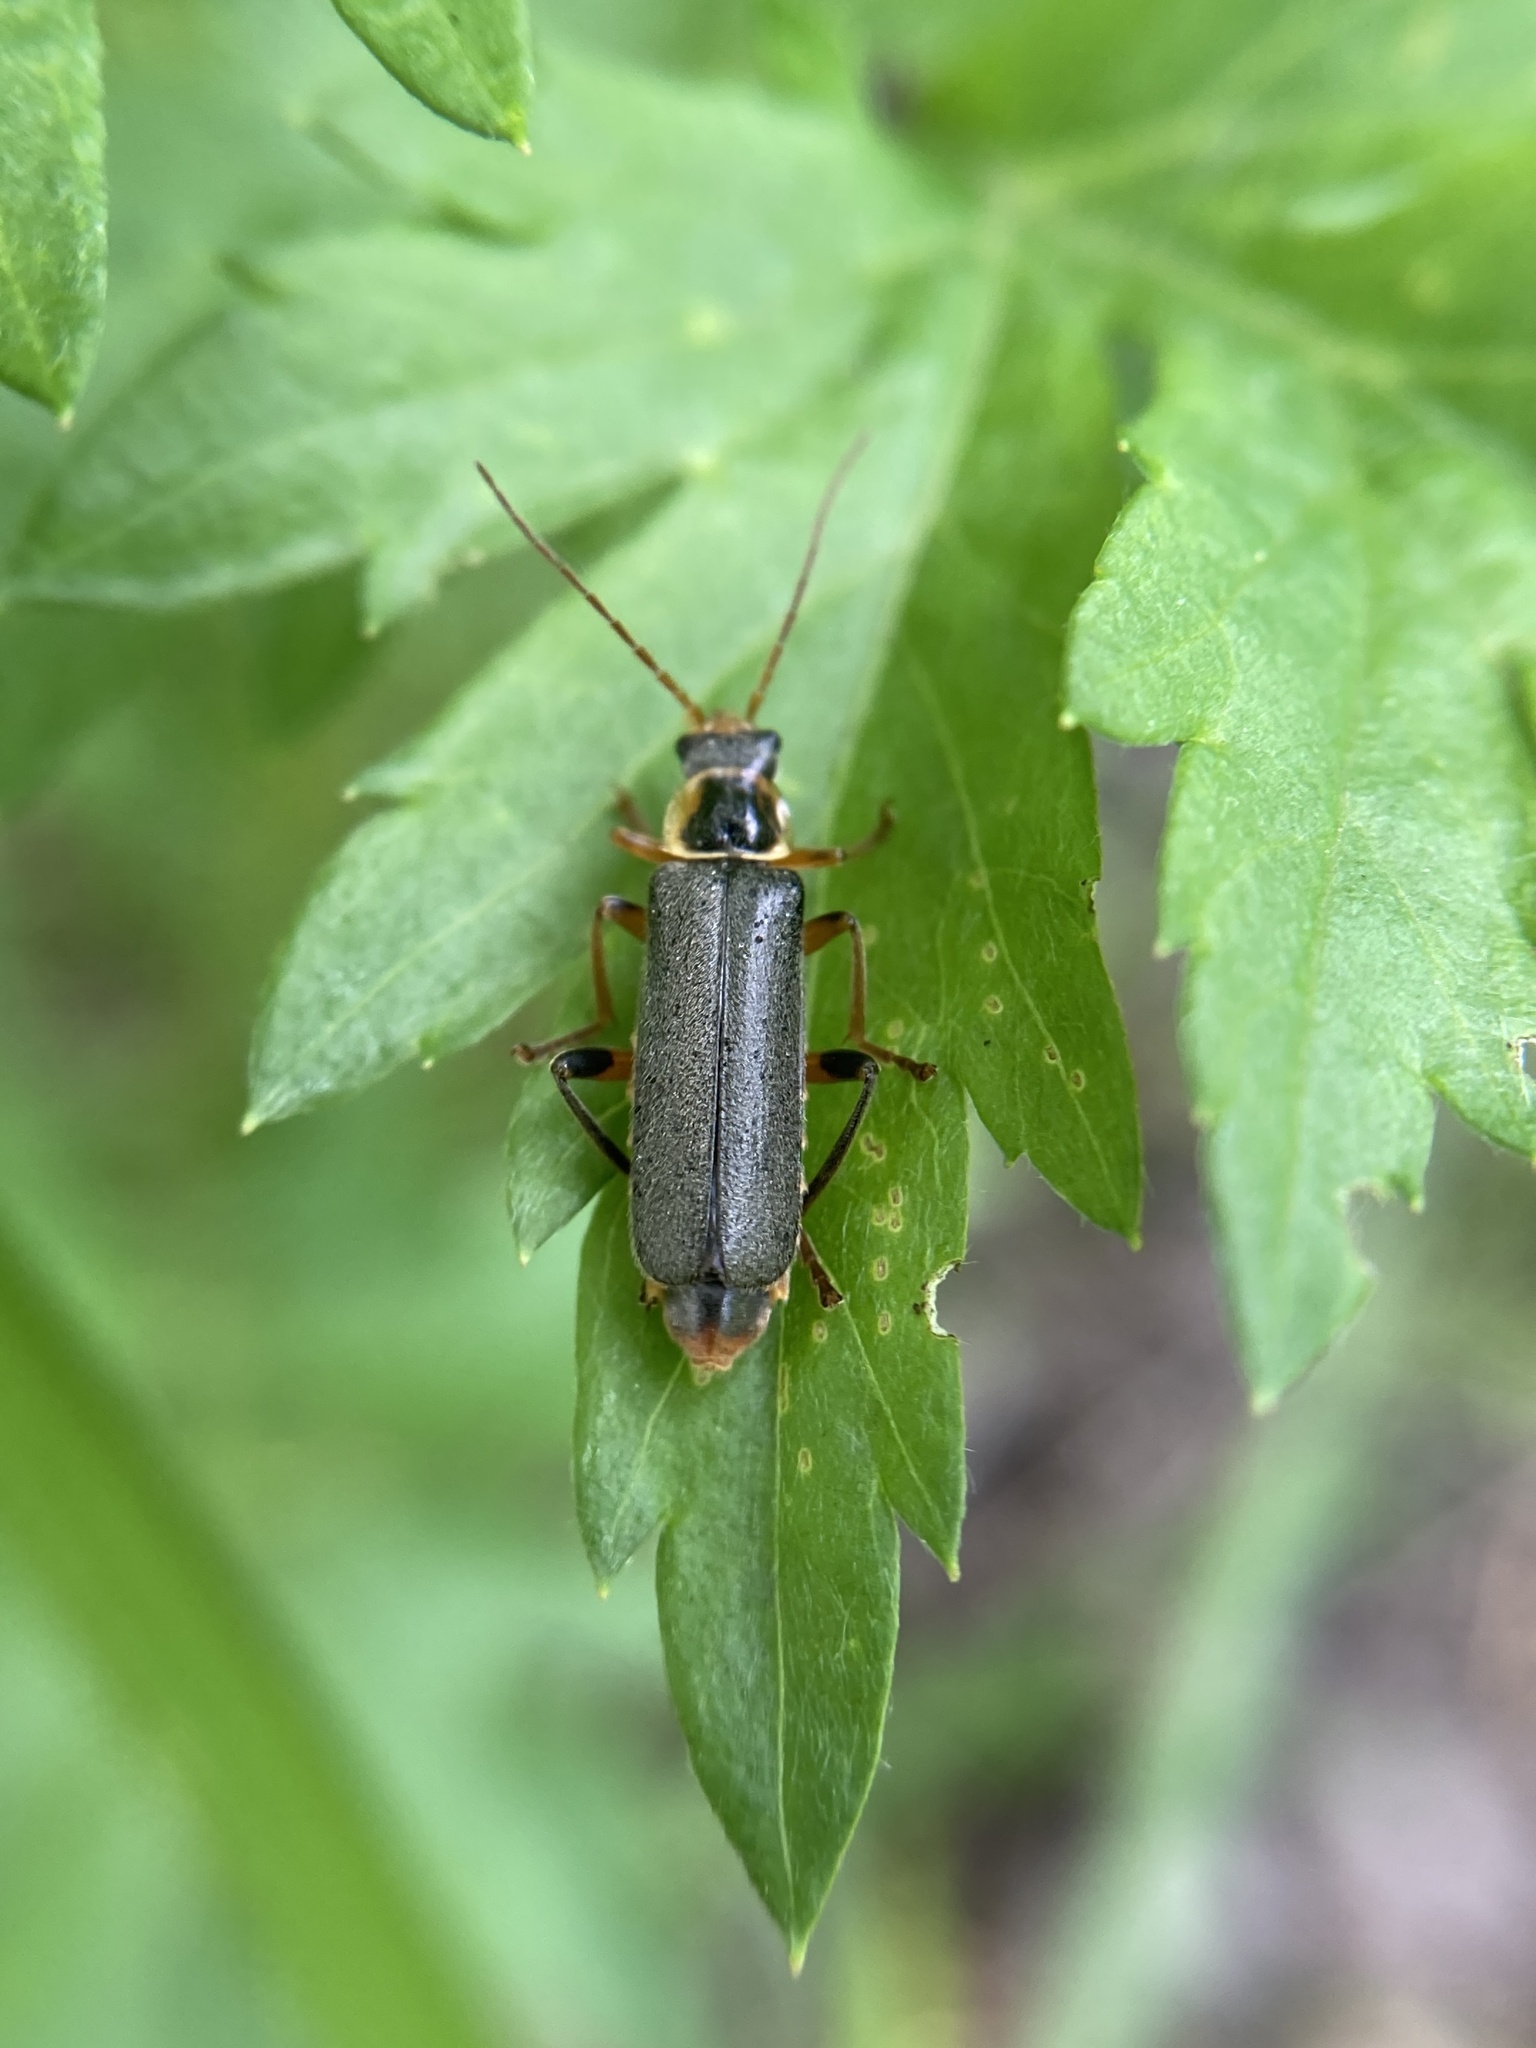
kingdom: Animalia
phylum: Arthropoda
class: Insecta
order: Coleoptera
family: Cantharidae
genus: Cantharis
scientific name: Cantharis nigricans
